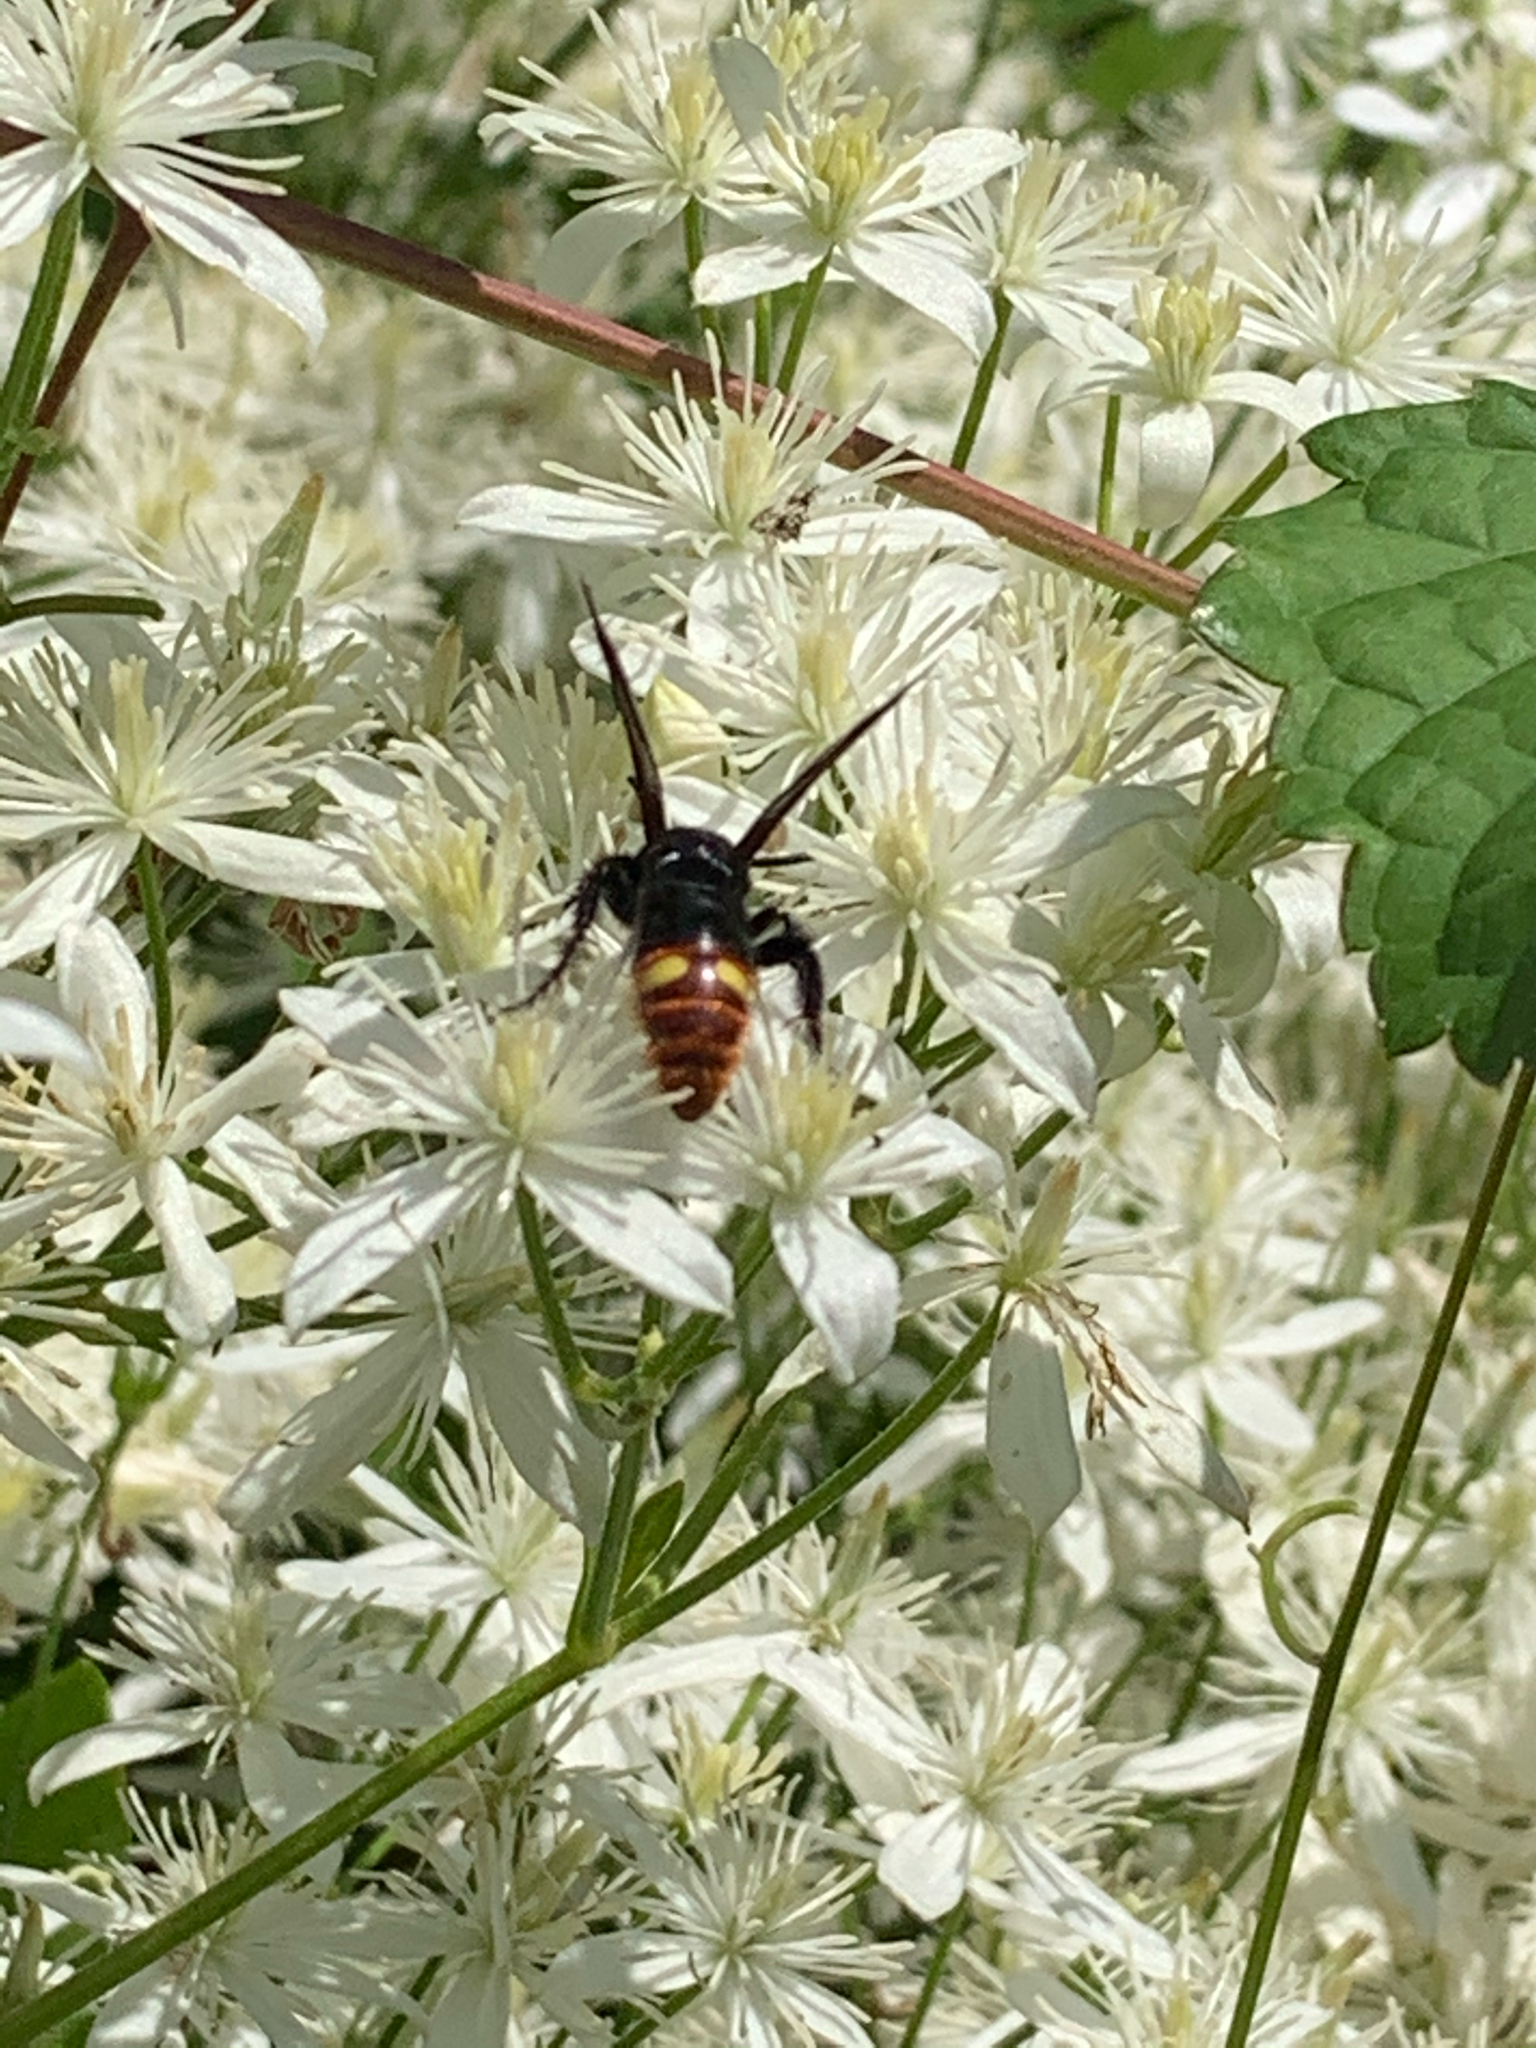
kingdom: Animalia
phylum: Arthropoda
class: Insecta
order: Hymenoptera
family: Scoliidae
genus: Scolia
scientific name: Scolia dubia
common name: Blue-winged scoliid wasp
